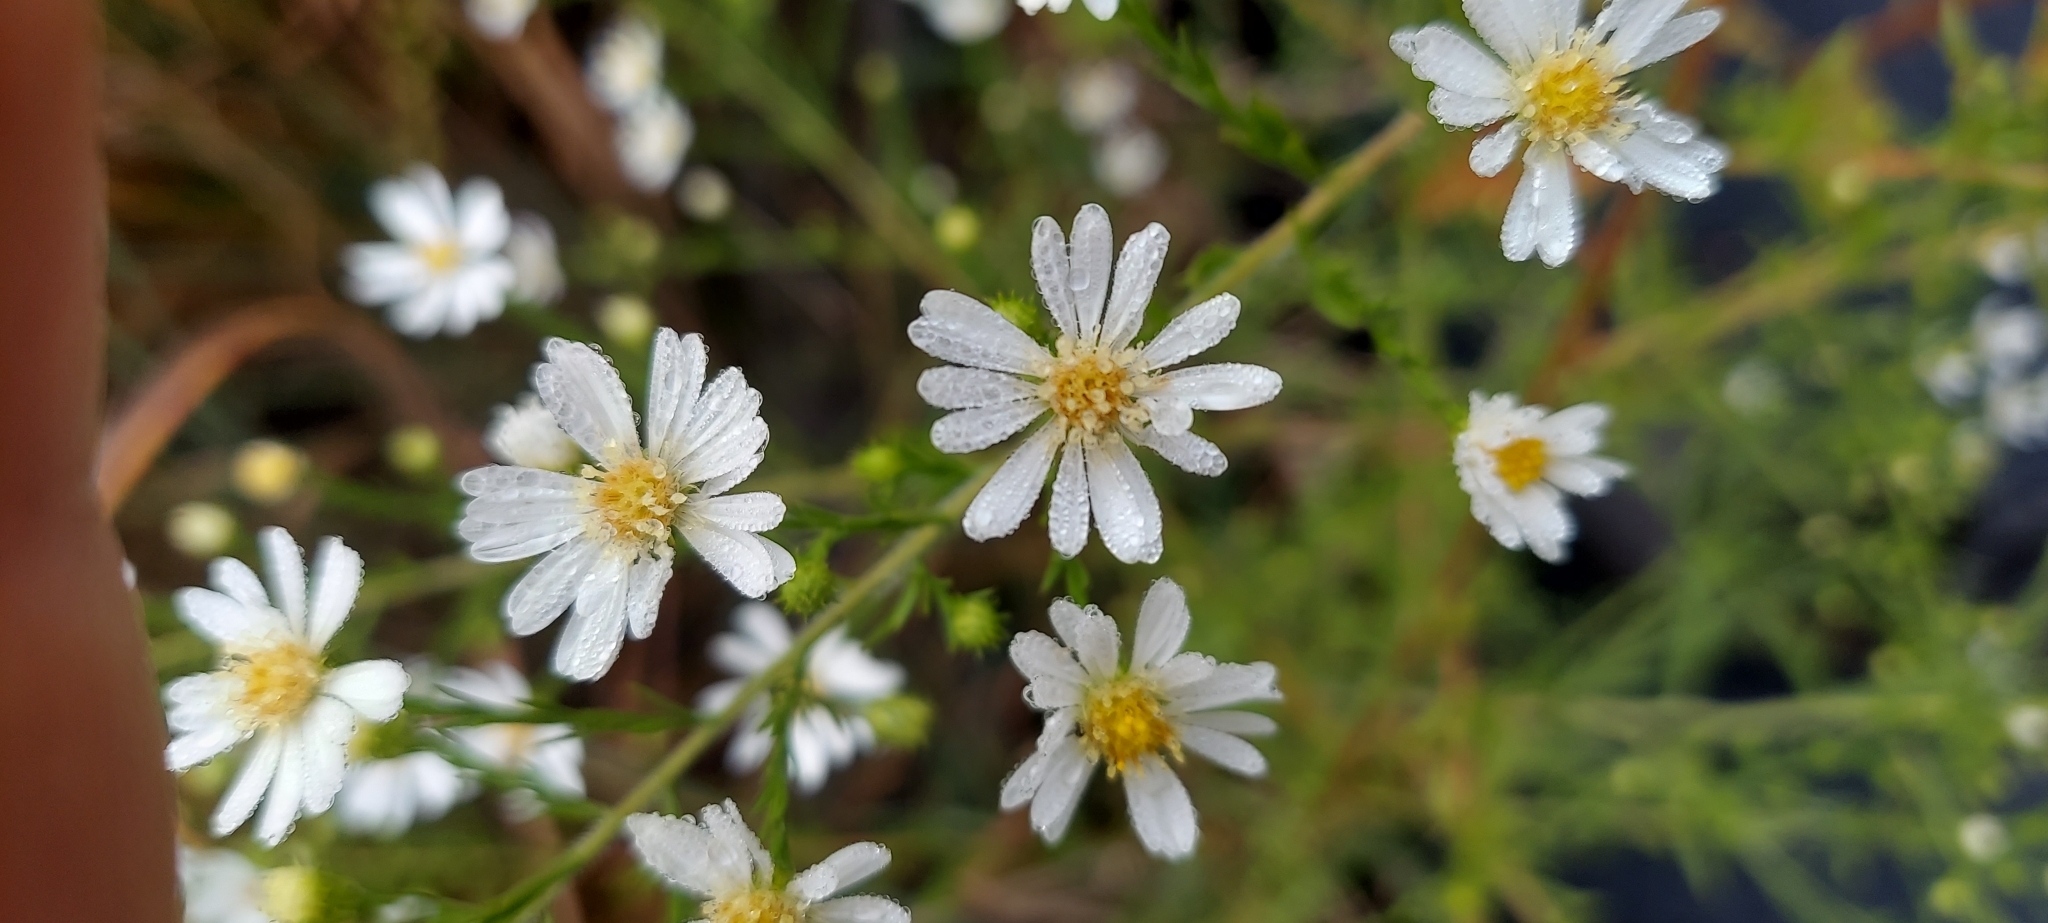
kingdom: Plantae
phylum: Tracheophyta
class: Magnoliopsida
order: Asterales
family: Asteraceae
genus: Symphyotrichum
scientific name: Symphyotrichum pilosum
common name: Awl aster
